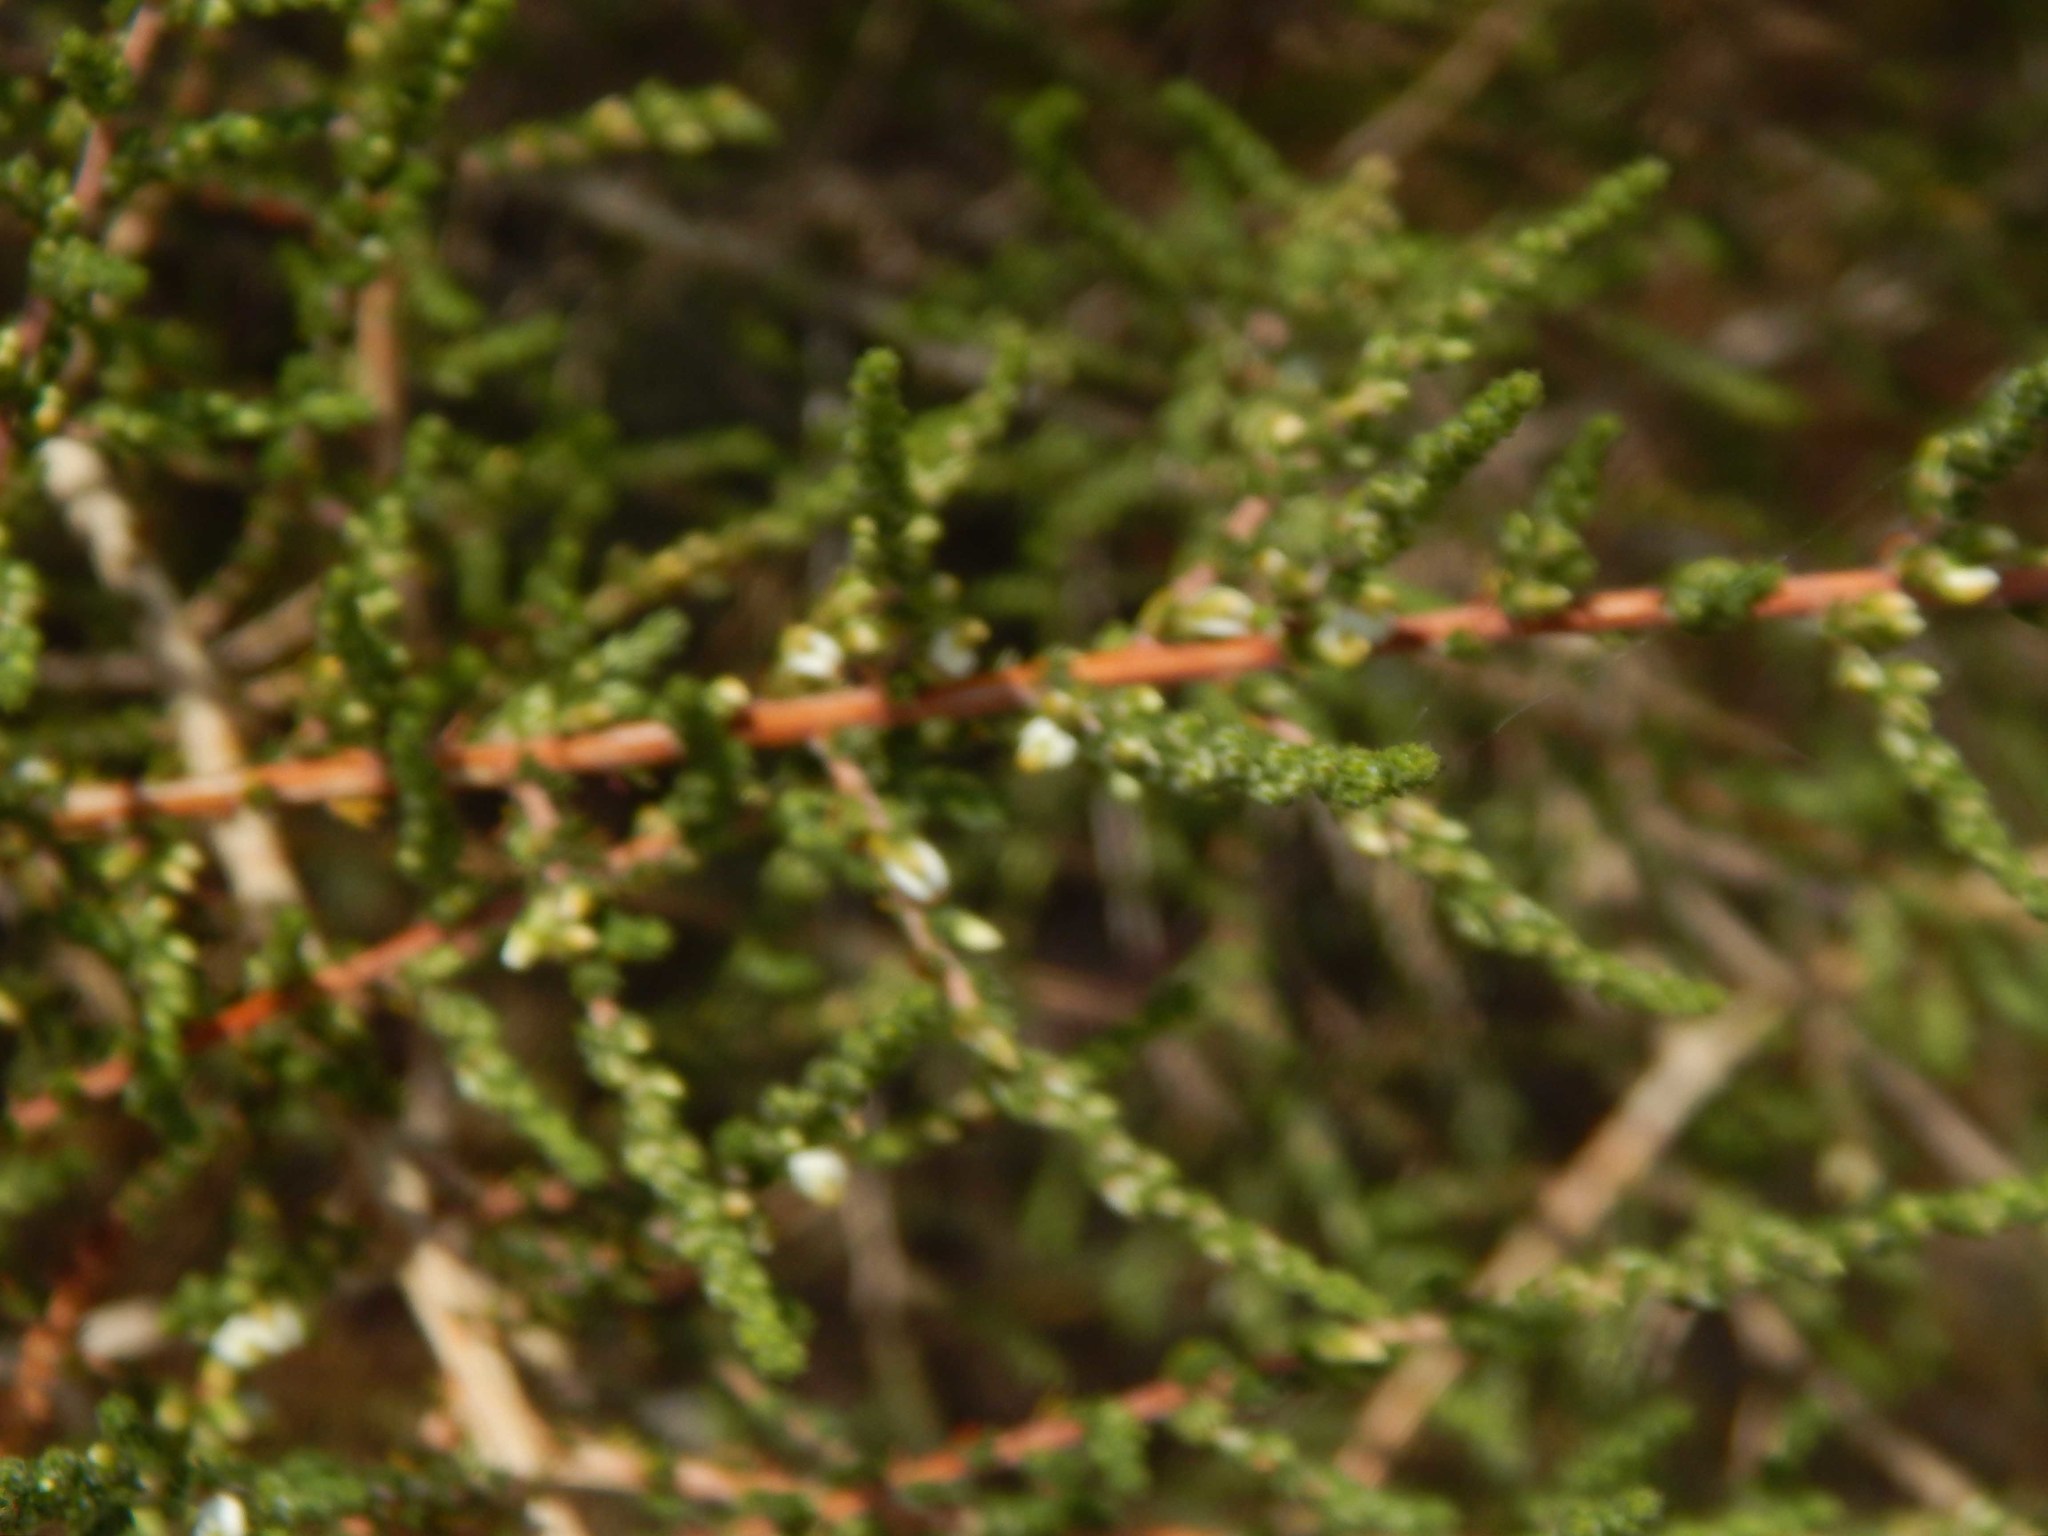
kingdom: Plantae
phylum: Tracheophyta
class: Magnoliopsida
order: Fabales
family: Fabaceae
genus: Aspalathus
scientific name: Aspalathus hispida
